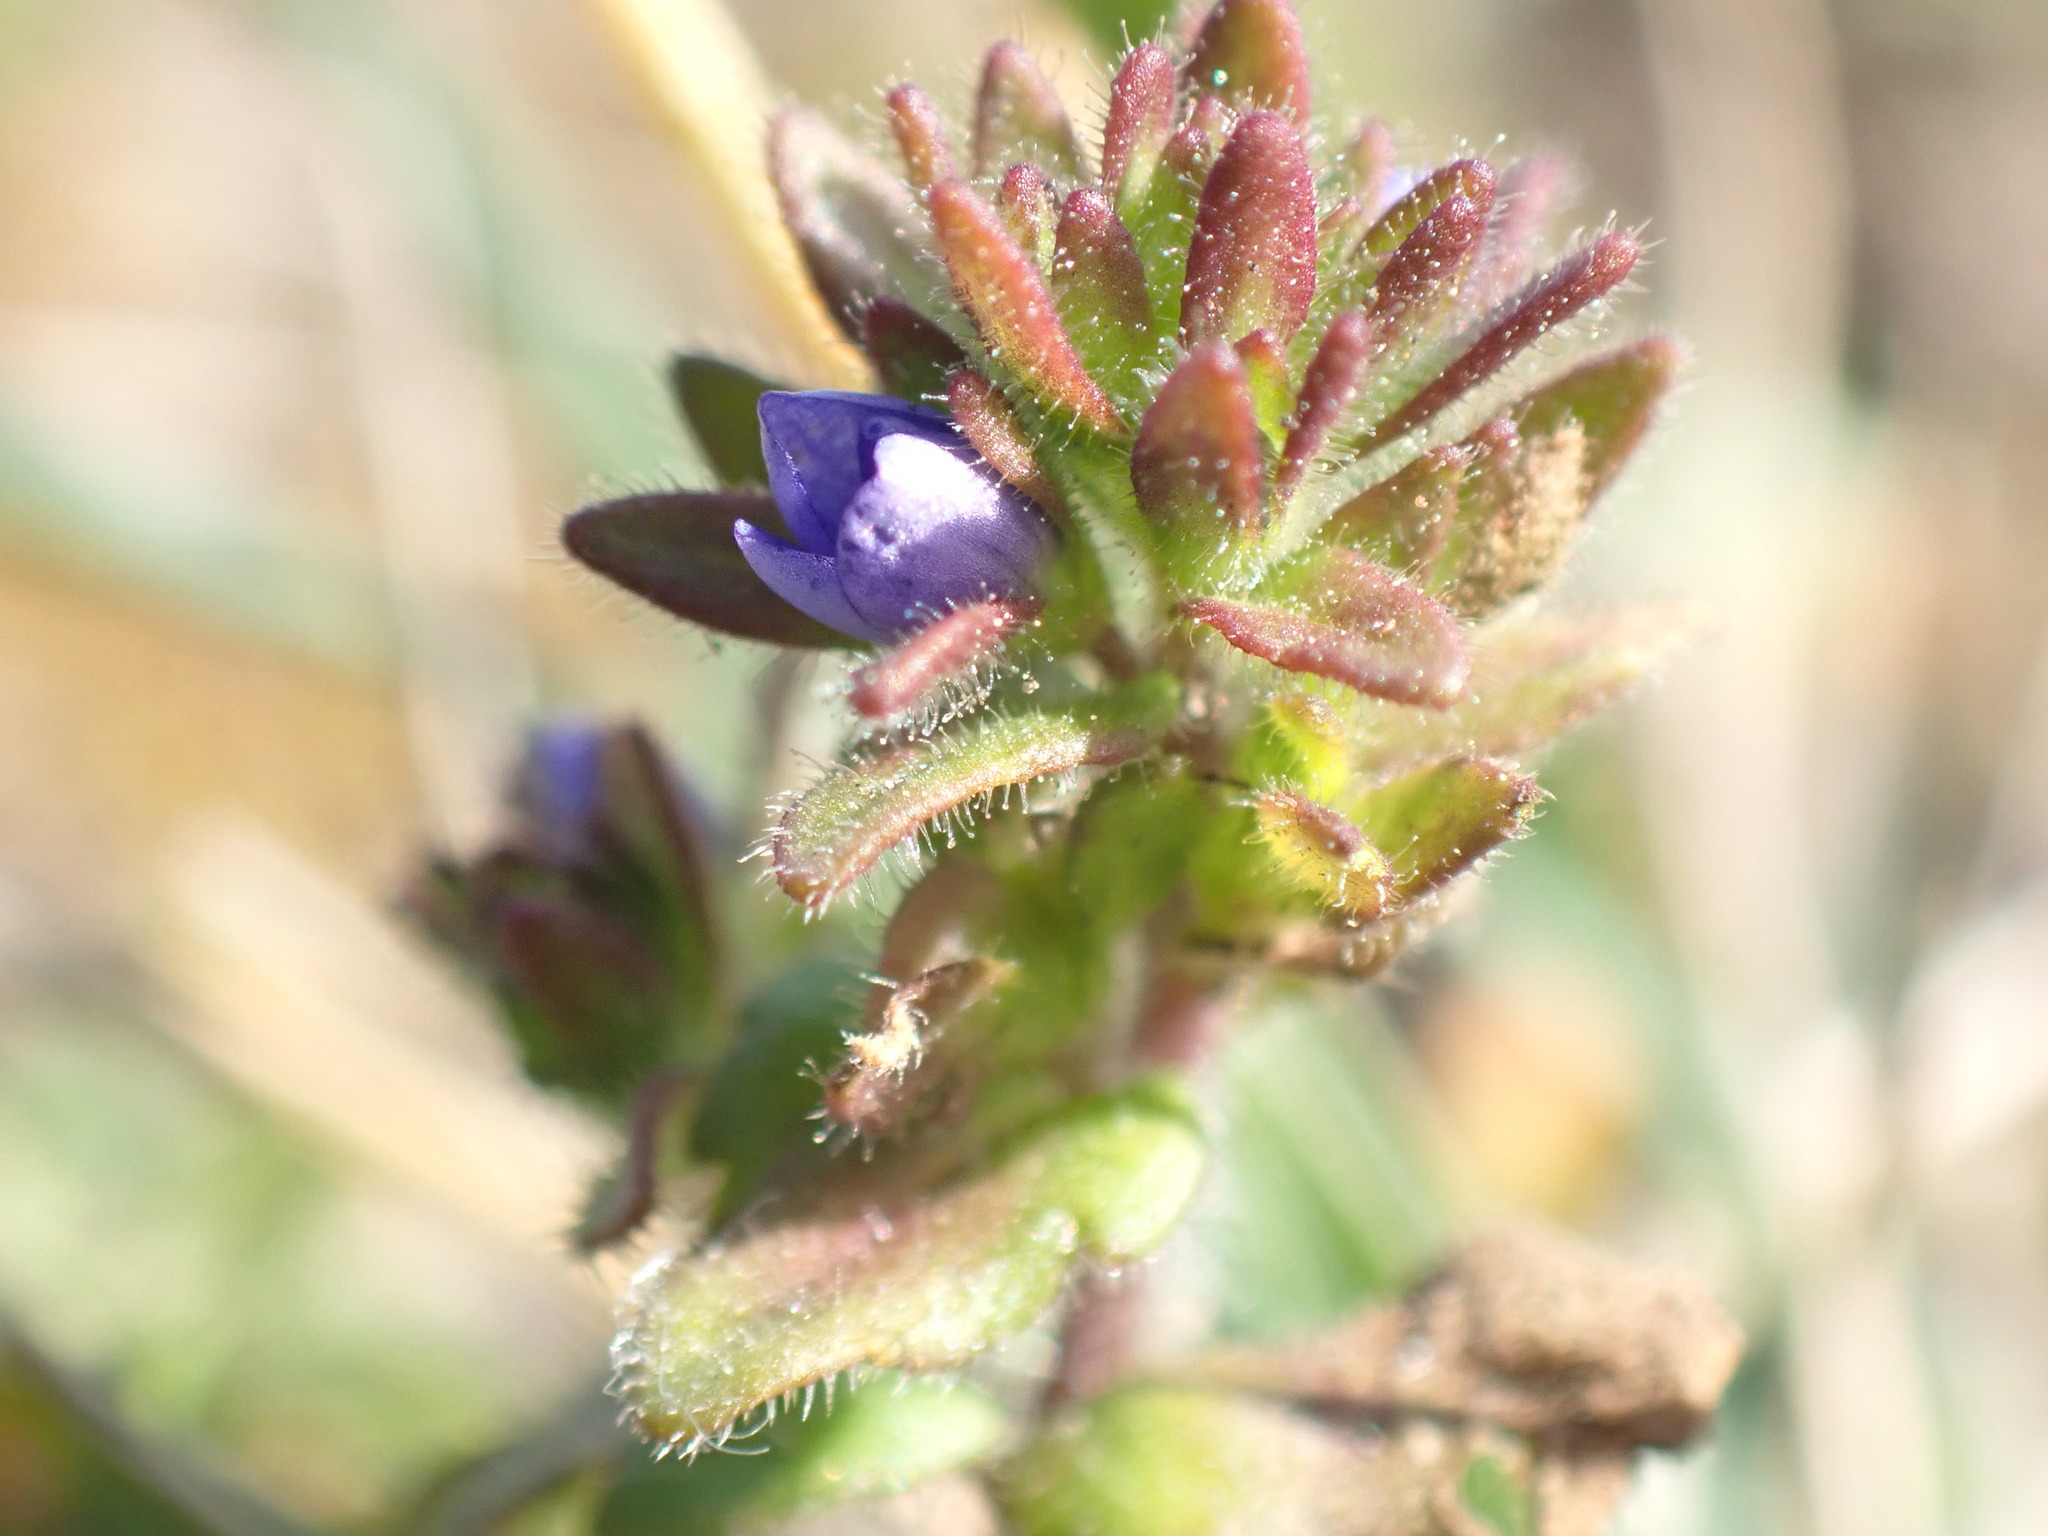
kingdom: Plantae
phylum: Tracheophyta
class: Magnoliopsida
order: Lamiales
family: Plantaginaceae
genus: Veronica
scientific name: Veronica arvensis
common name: Corn speedwell
